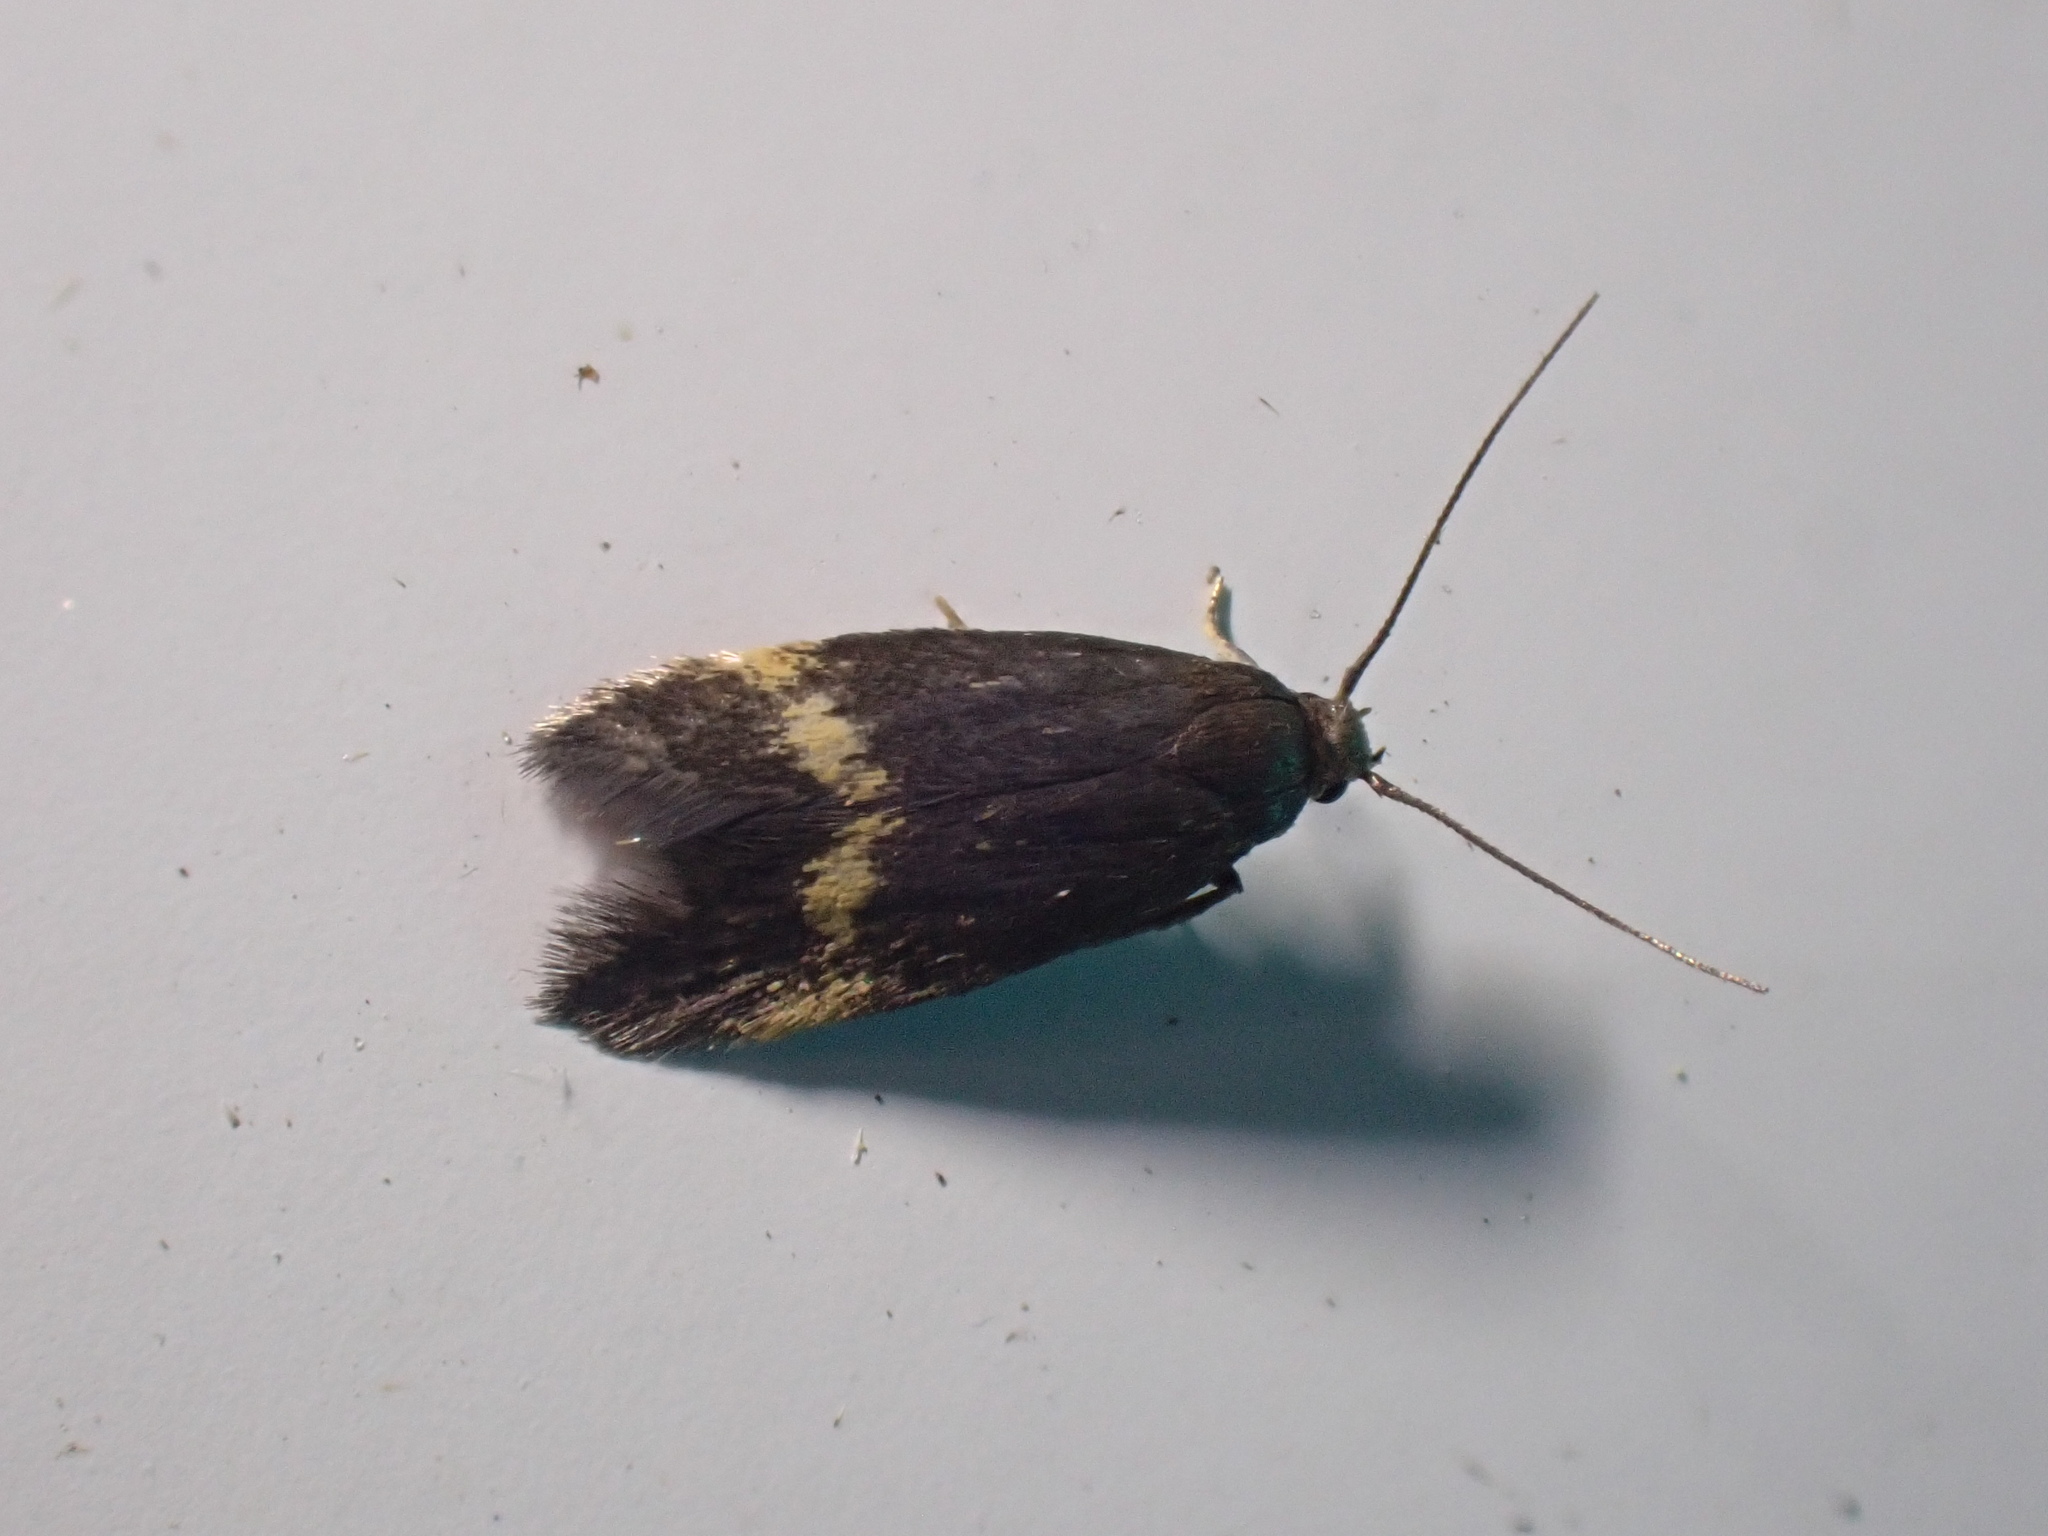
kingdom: Animalia
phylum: Arthropoda
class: Insecta
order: Lepidoptera
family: Oecophoridae
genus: Borkhausenia
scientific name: Borkhausenia minutella
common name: Thatch tubic
